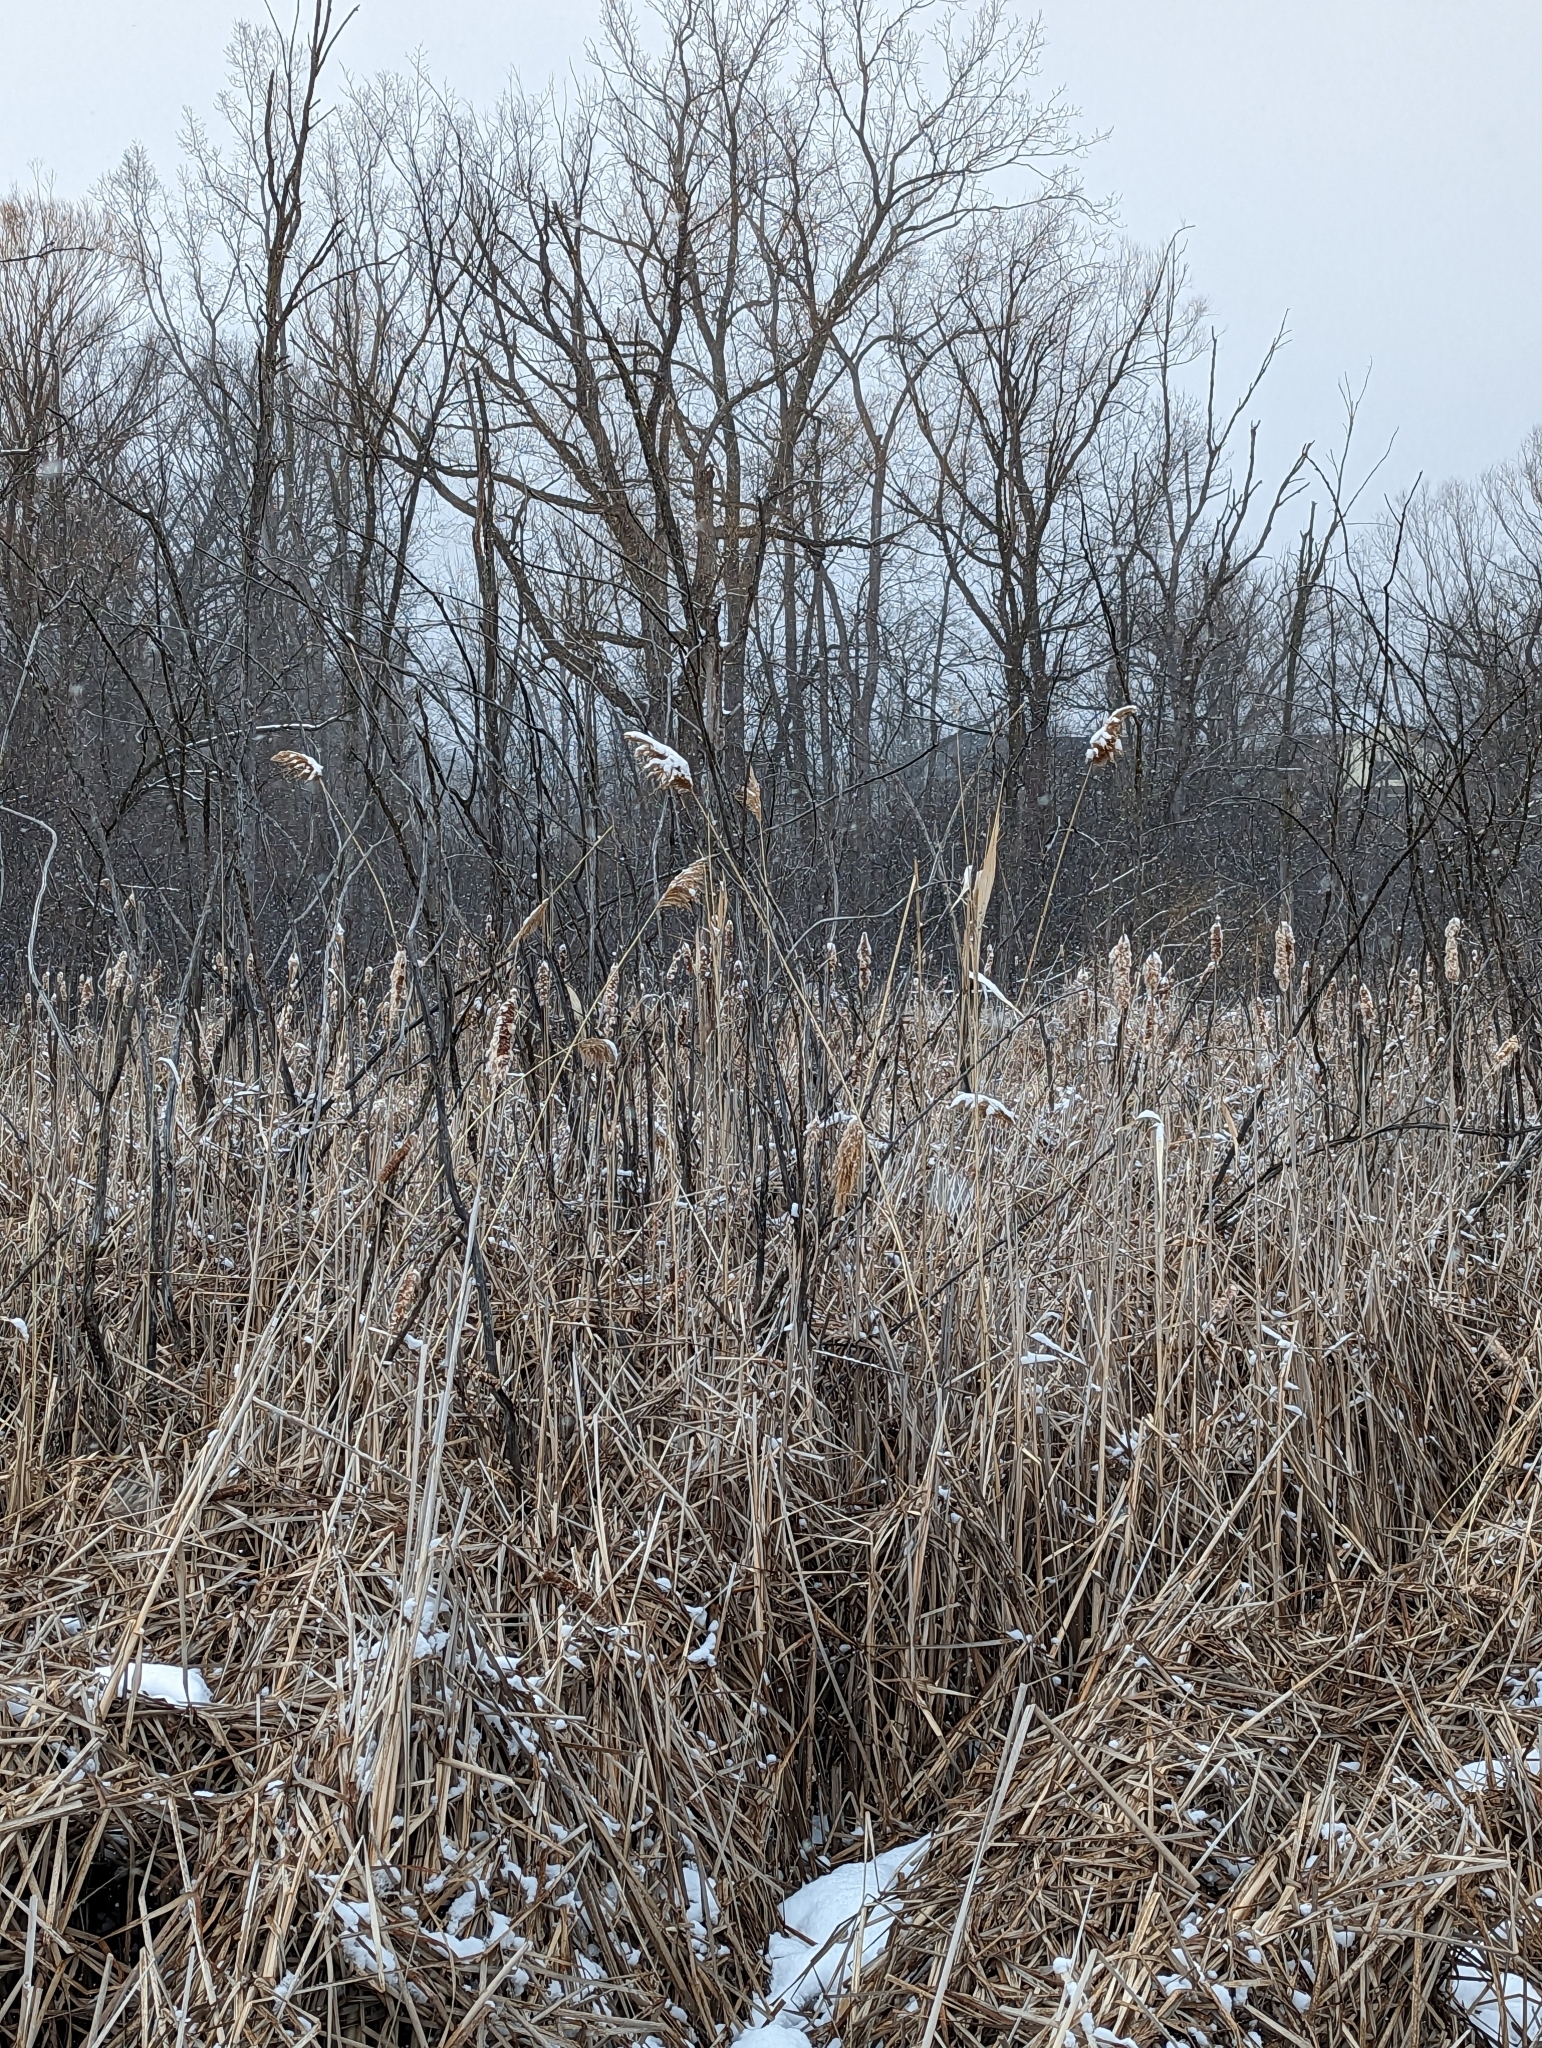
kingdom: Plantae
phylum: Tracheophyta
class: Liliopsida
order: Poales
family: Poaceae
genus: Phragmites
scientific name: Phragmites australis
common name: Common reed
